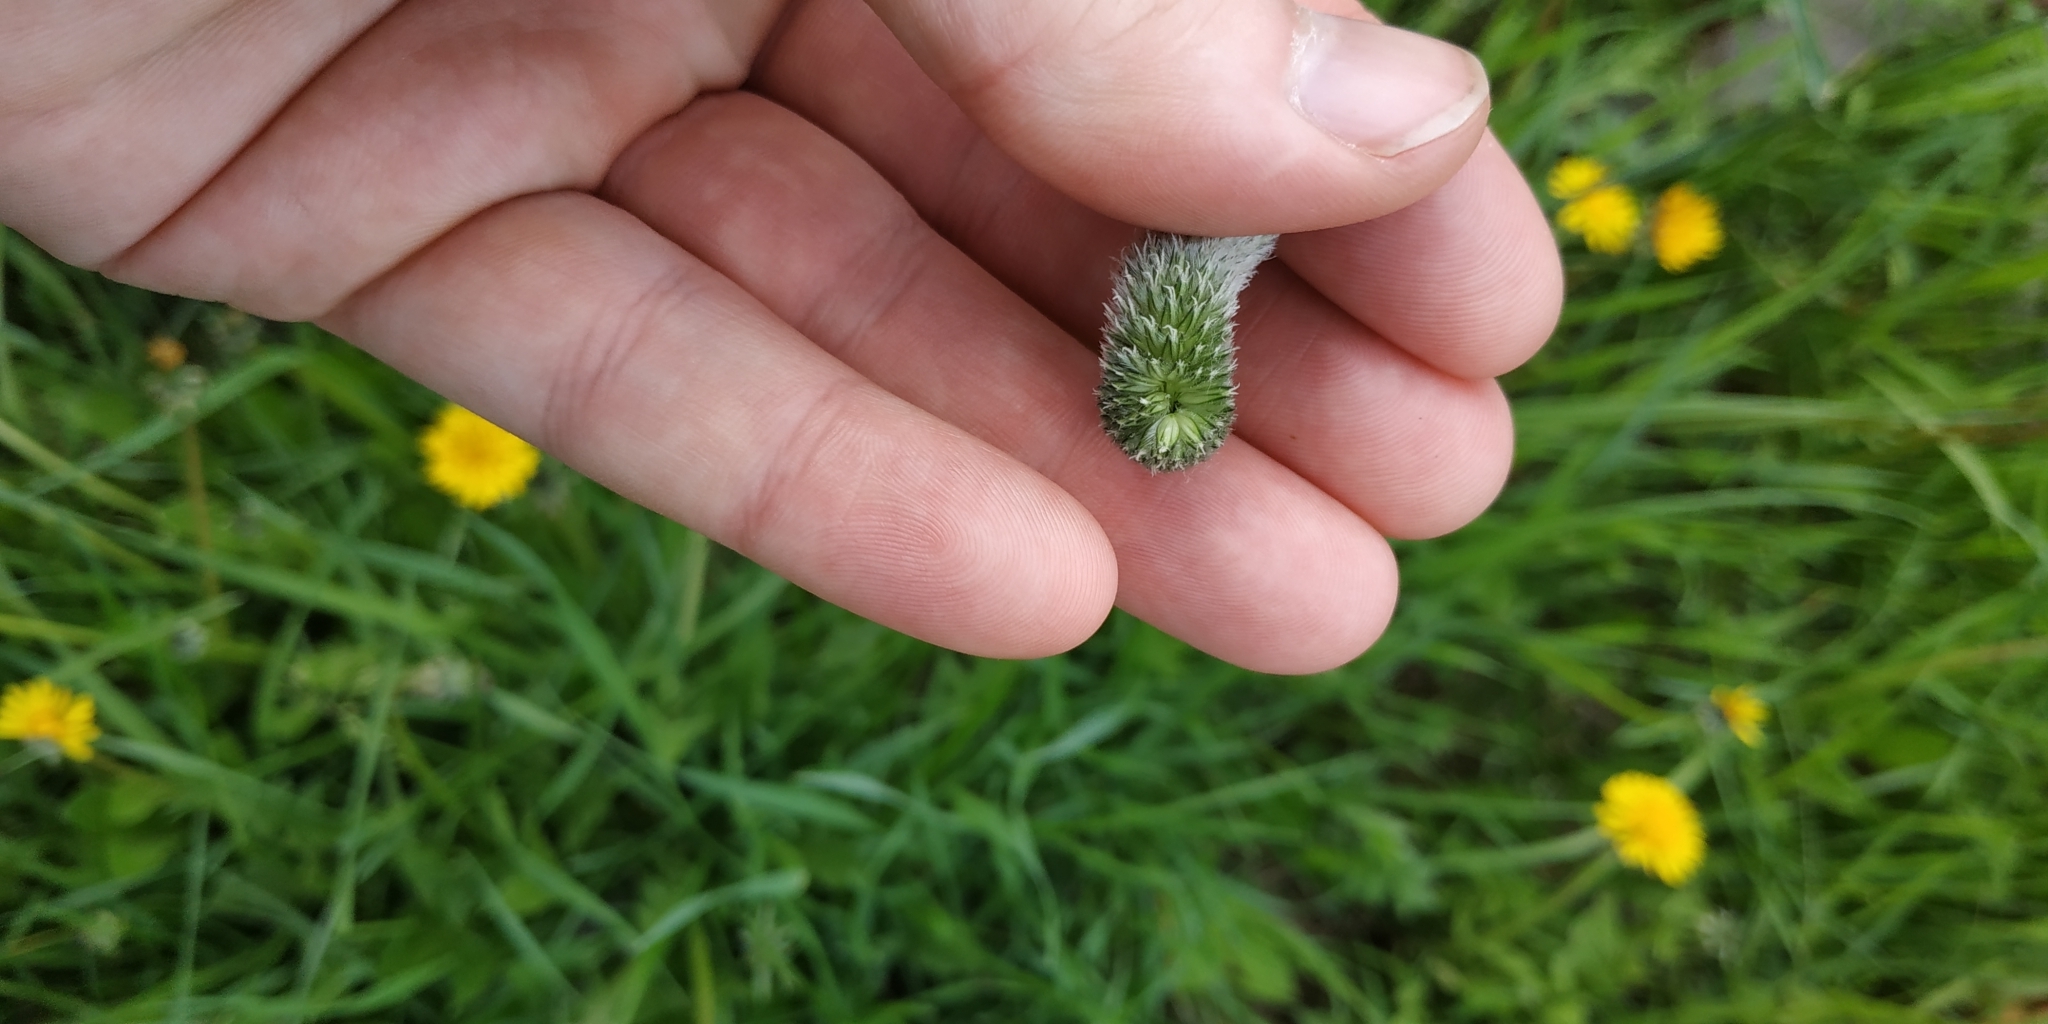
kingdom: Plantae
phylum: Tracheophyta
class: Liliopsida
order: Poales
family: Poaceae
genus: Alopecurus
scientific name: Alopecurus pratensis
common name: Meadow foxtail
